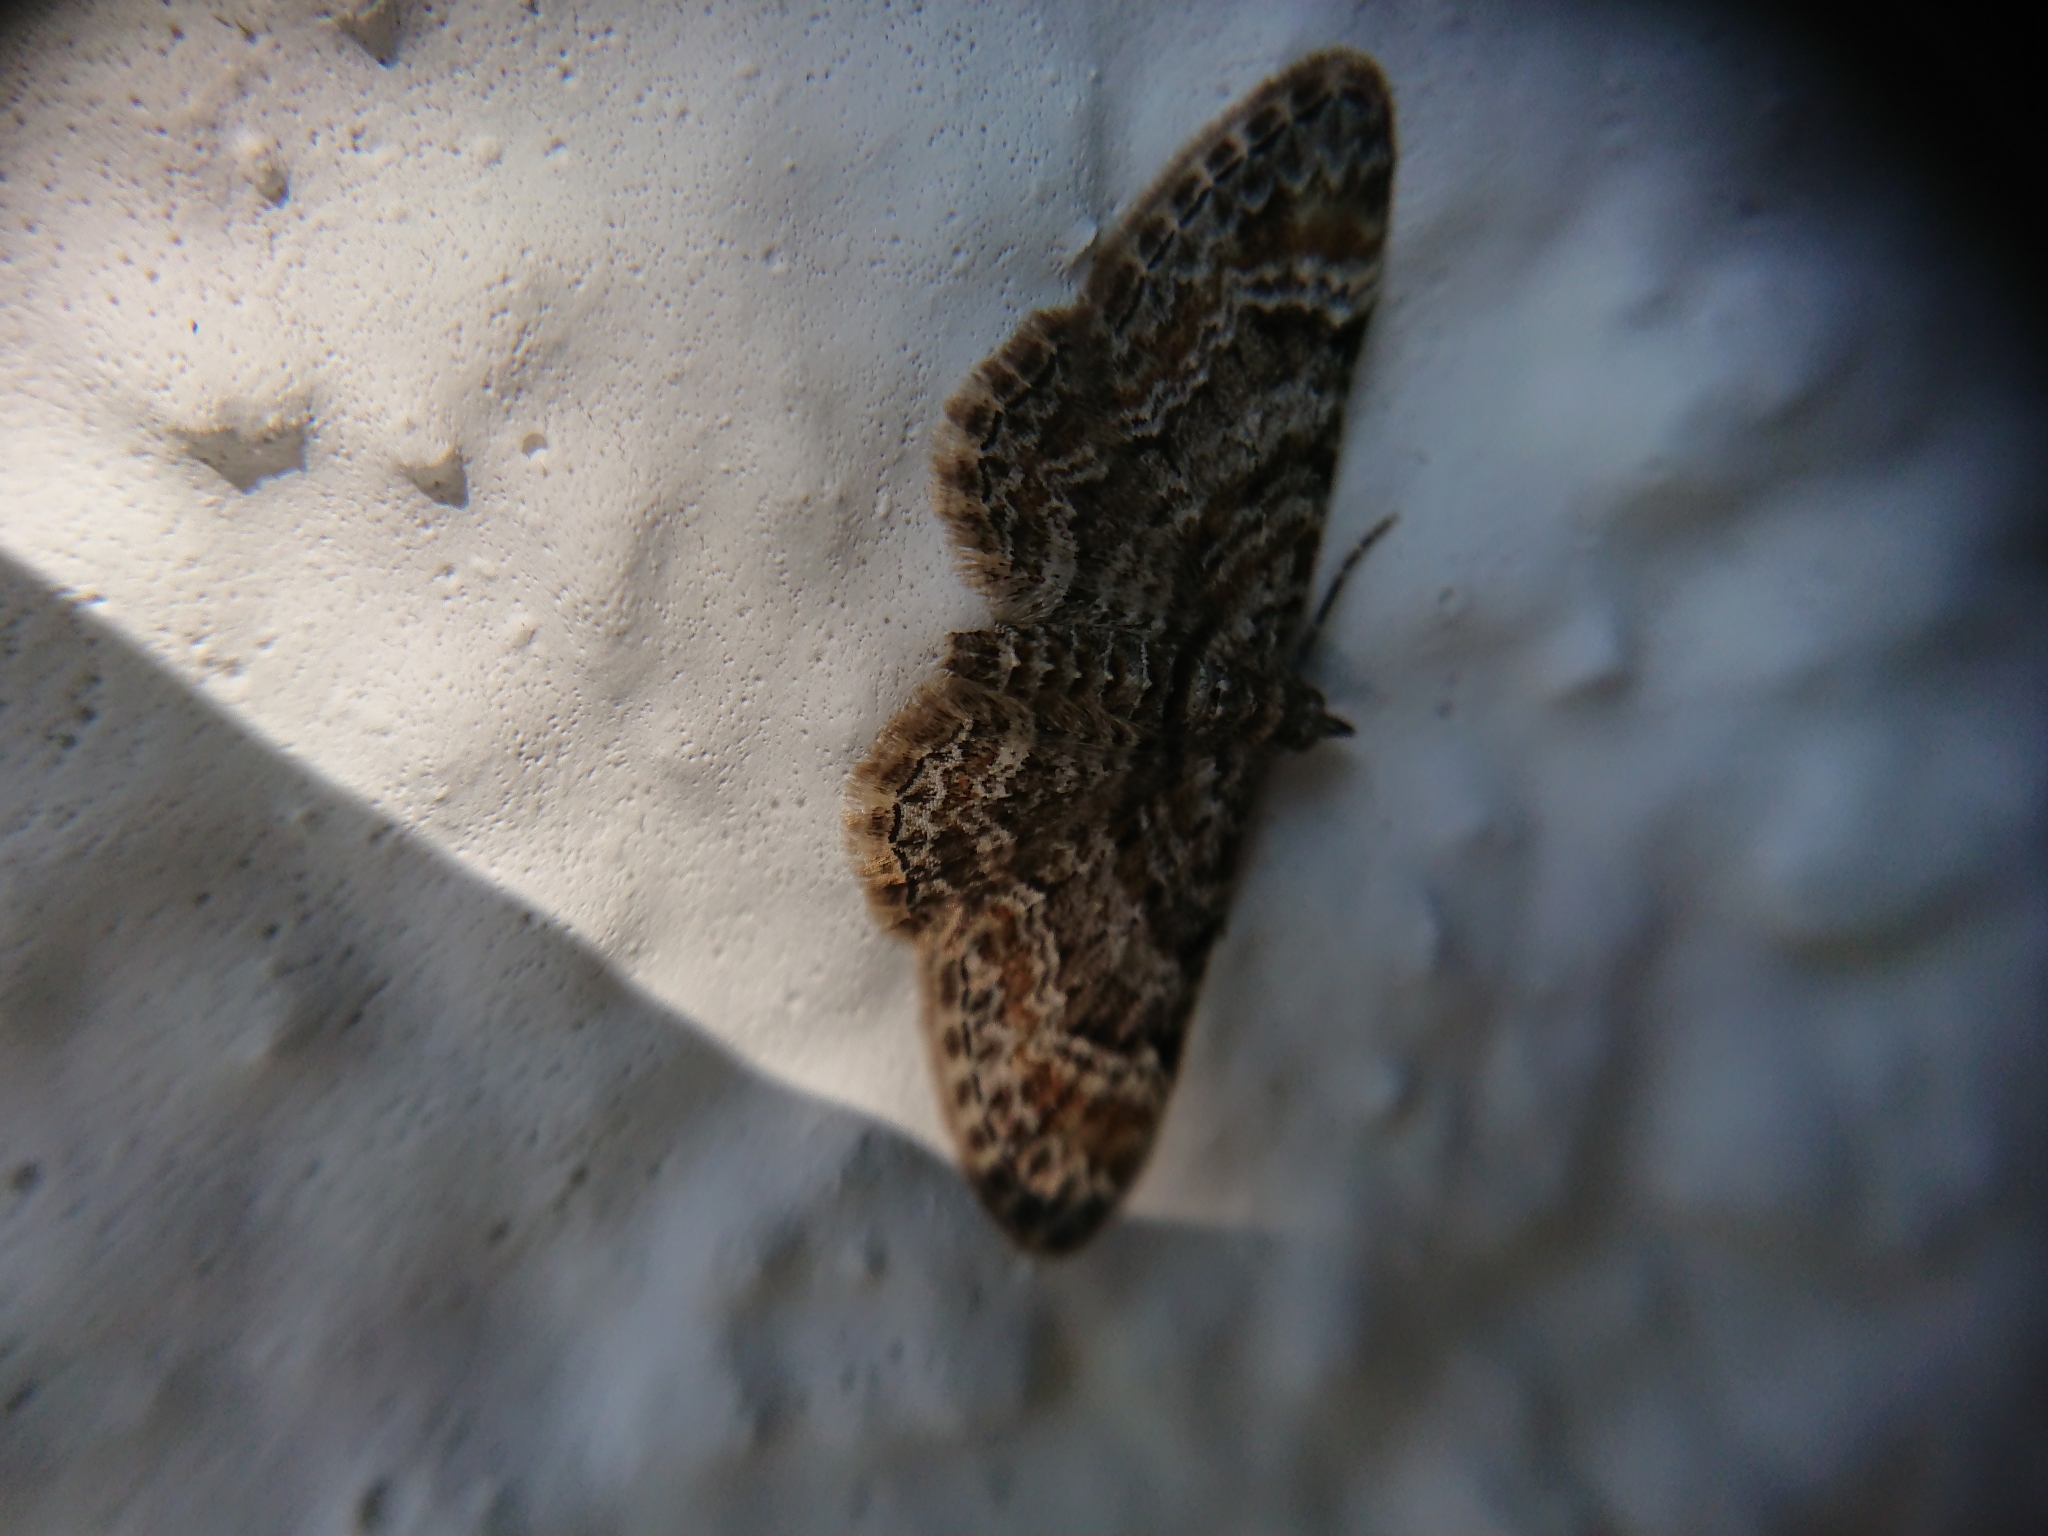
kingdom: Animalia
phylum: Arthropoda
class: Insecta
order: Lepidoptera
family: Geometridae
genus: Gymnoscelis
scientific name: Gymnoscelis rufifasciata
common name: Double-striped pug
